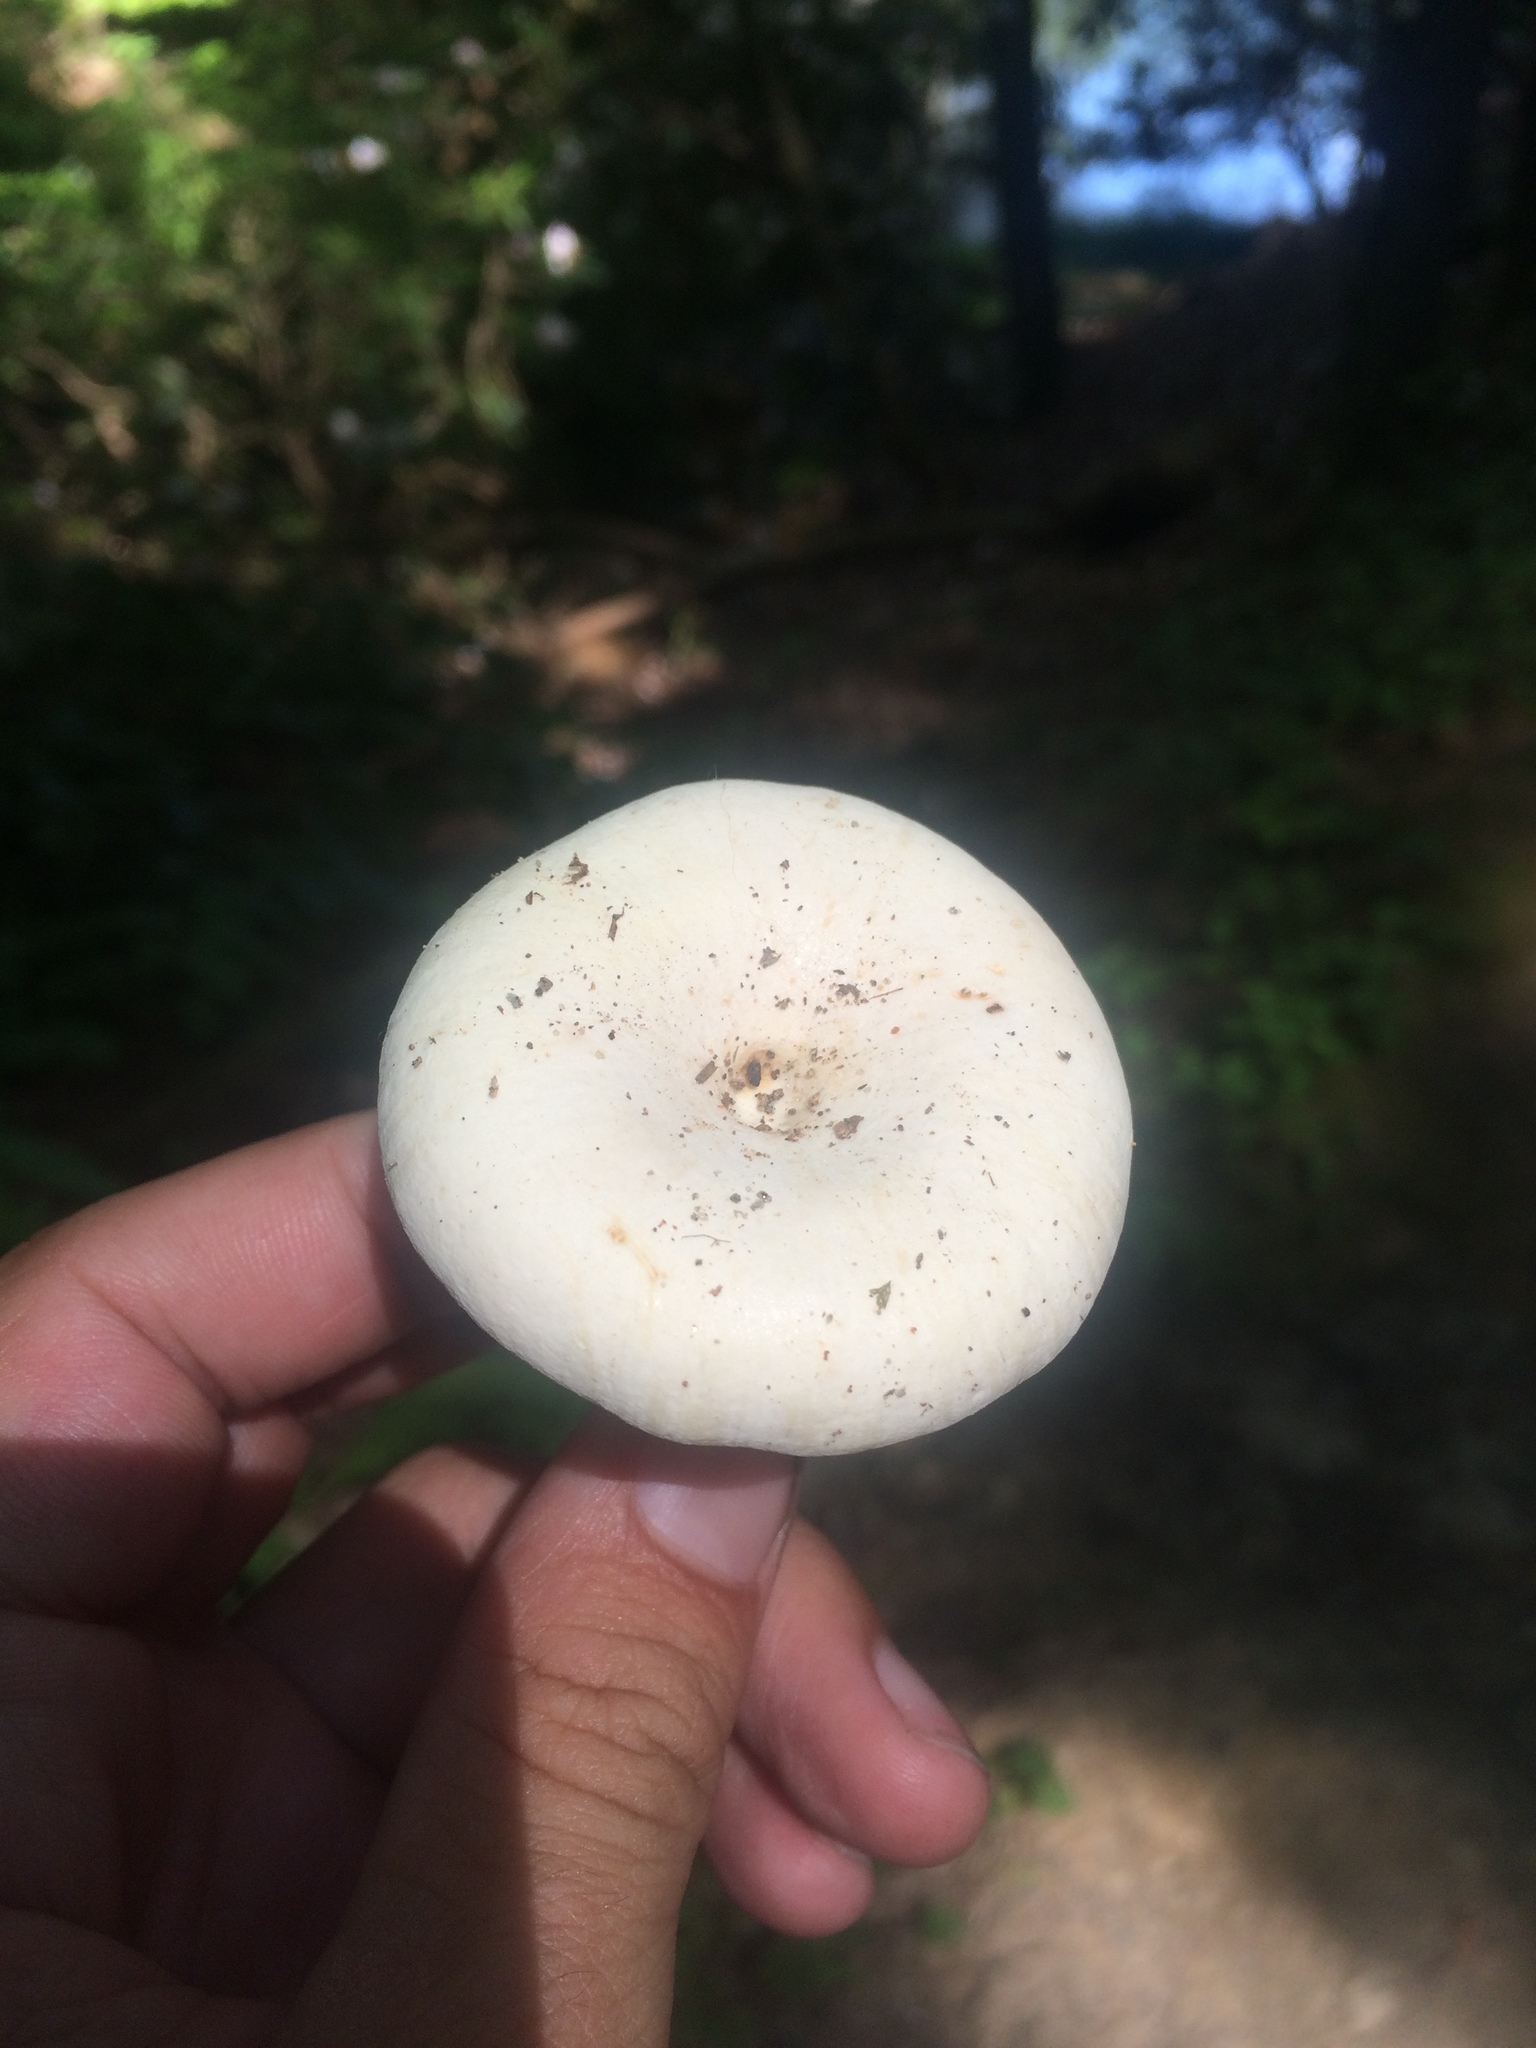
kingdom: Fungi
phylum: Basidiomycota
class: Agaricomycetes
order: Russulales
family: Russulaceae
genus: Lactifluus
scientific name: Lactifluus piperatus
